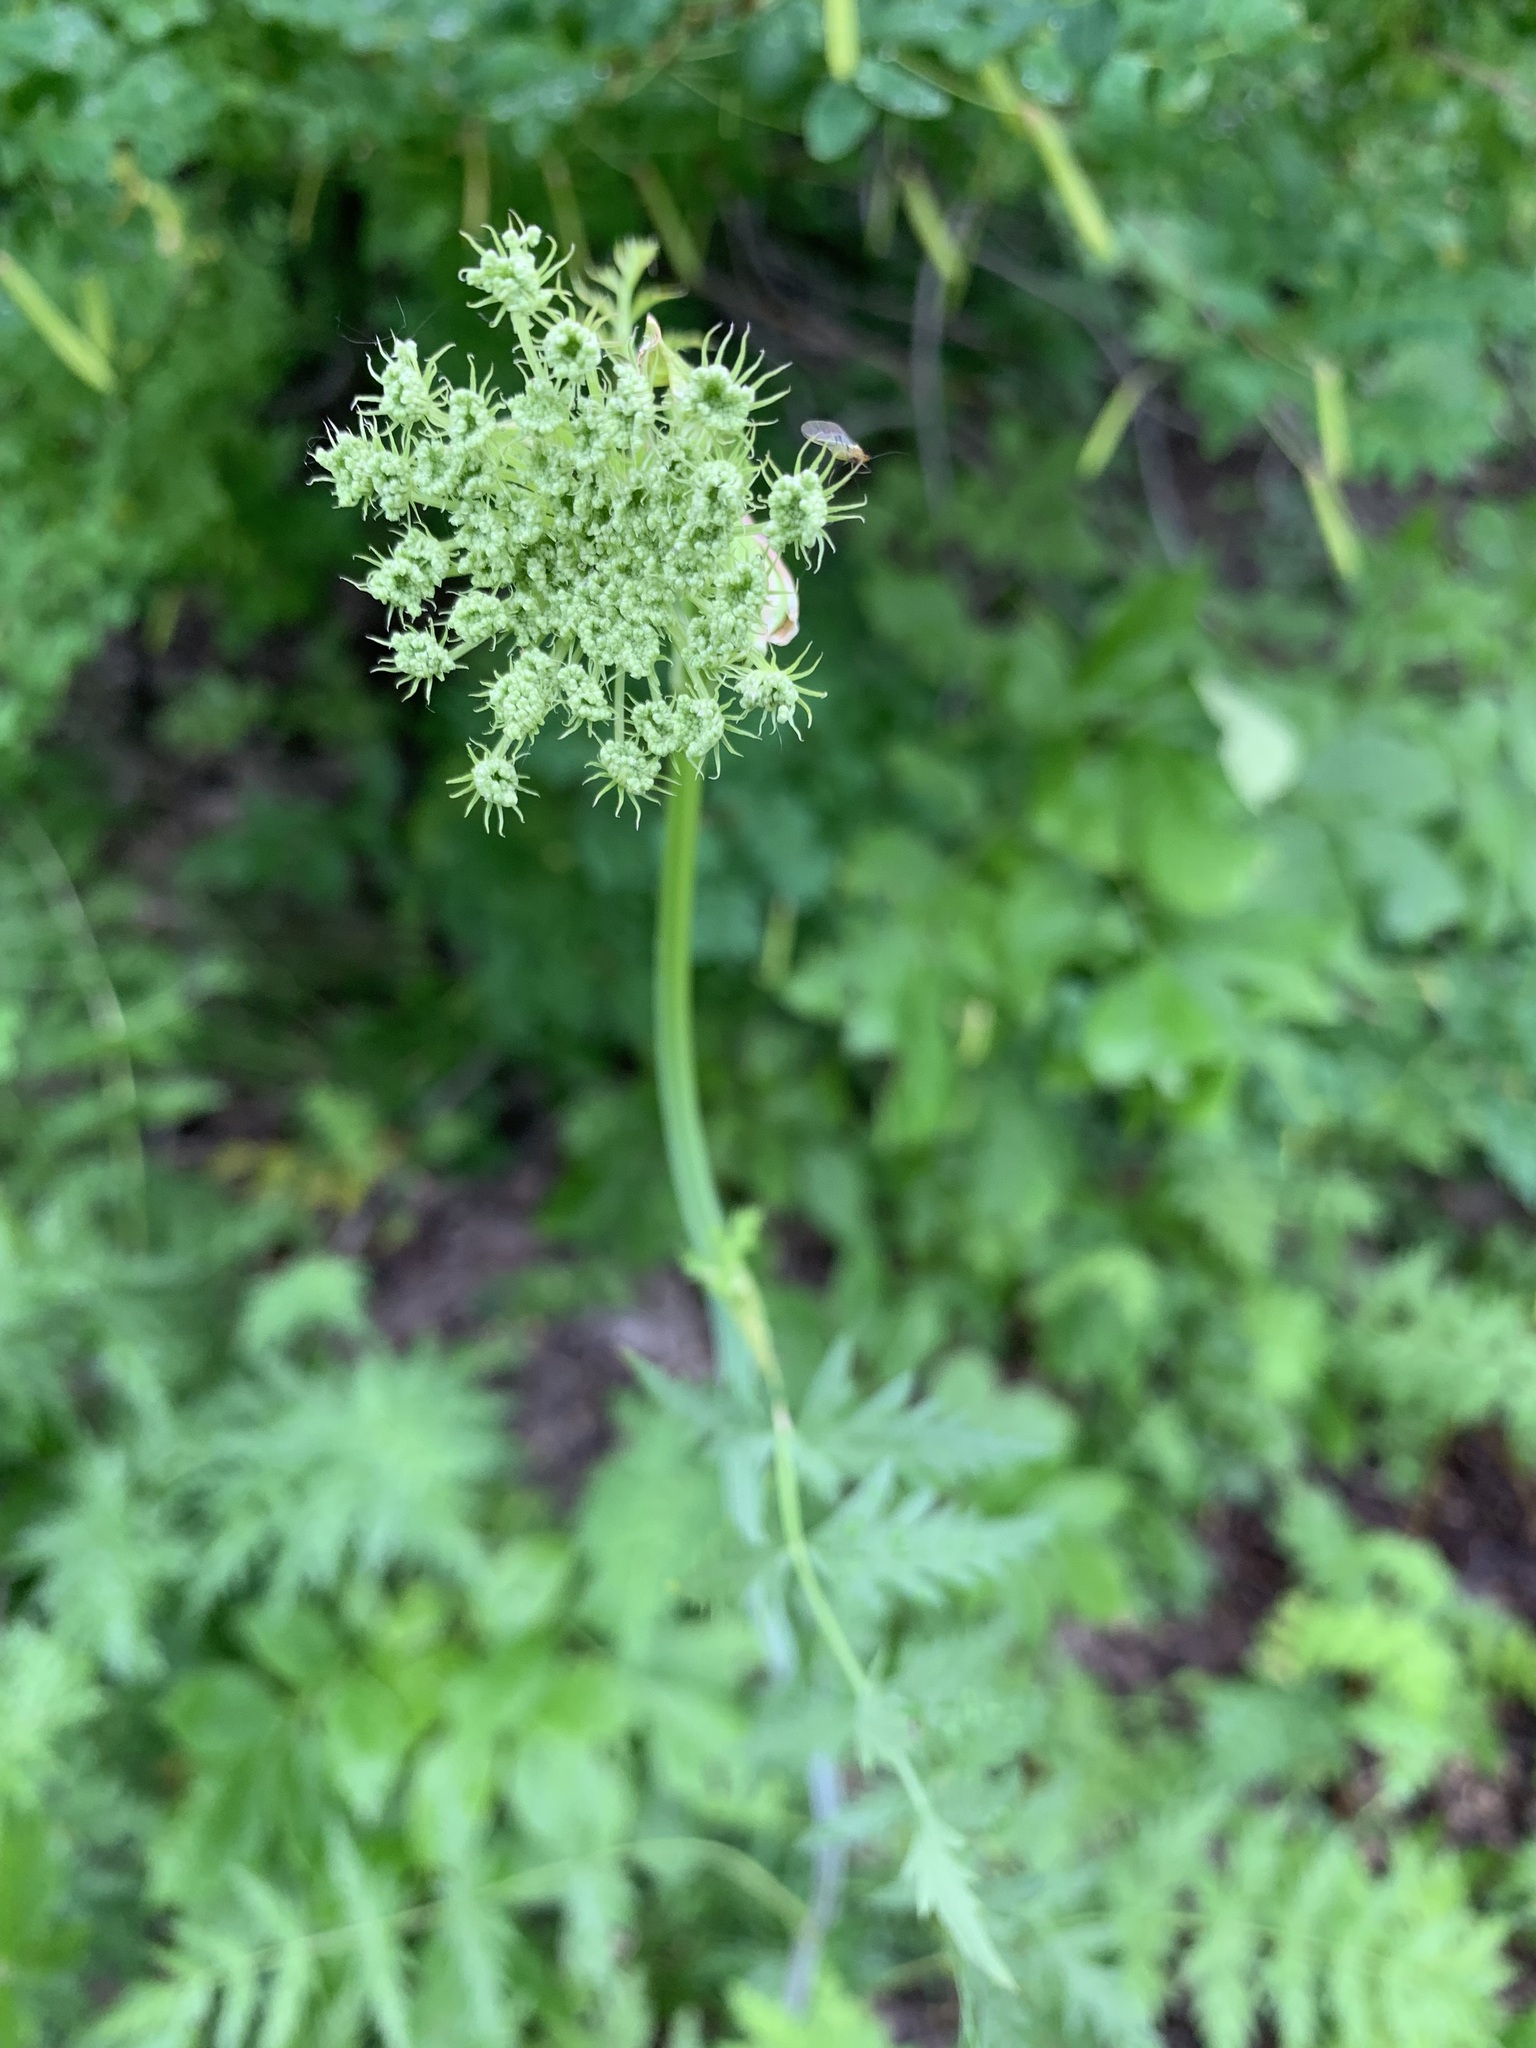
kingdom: Plantae
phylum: Tracheophyta
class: Magnoliopsida
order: Apiales
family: Apiaceae
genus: Seseli
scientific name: Seseli libanotis
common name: Mooncarrot
